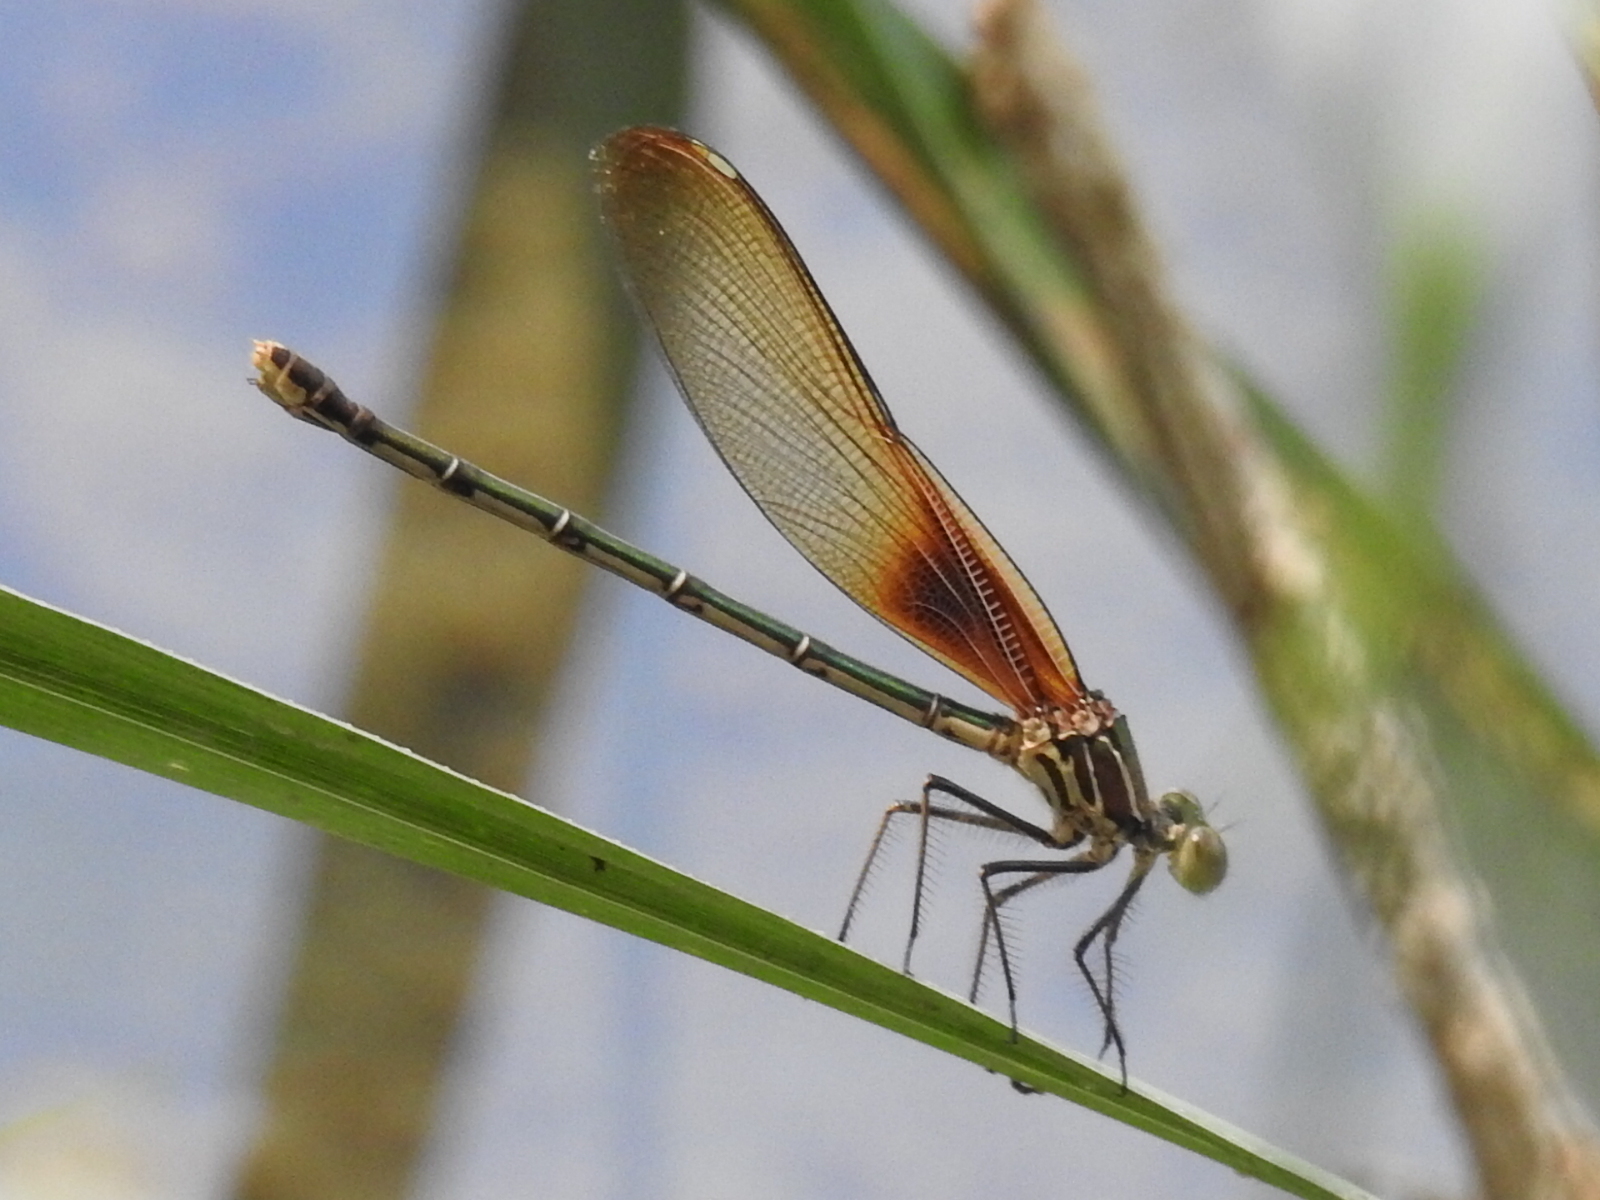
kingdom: Animalia
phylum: Arthropoda
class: Insecta
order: Odonata
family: Calopterygidae
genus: Hetaerina
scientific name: Hetaerina americana
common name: American rubyspot
